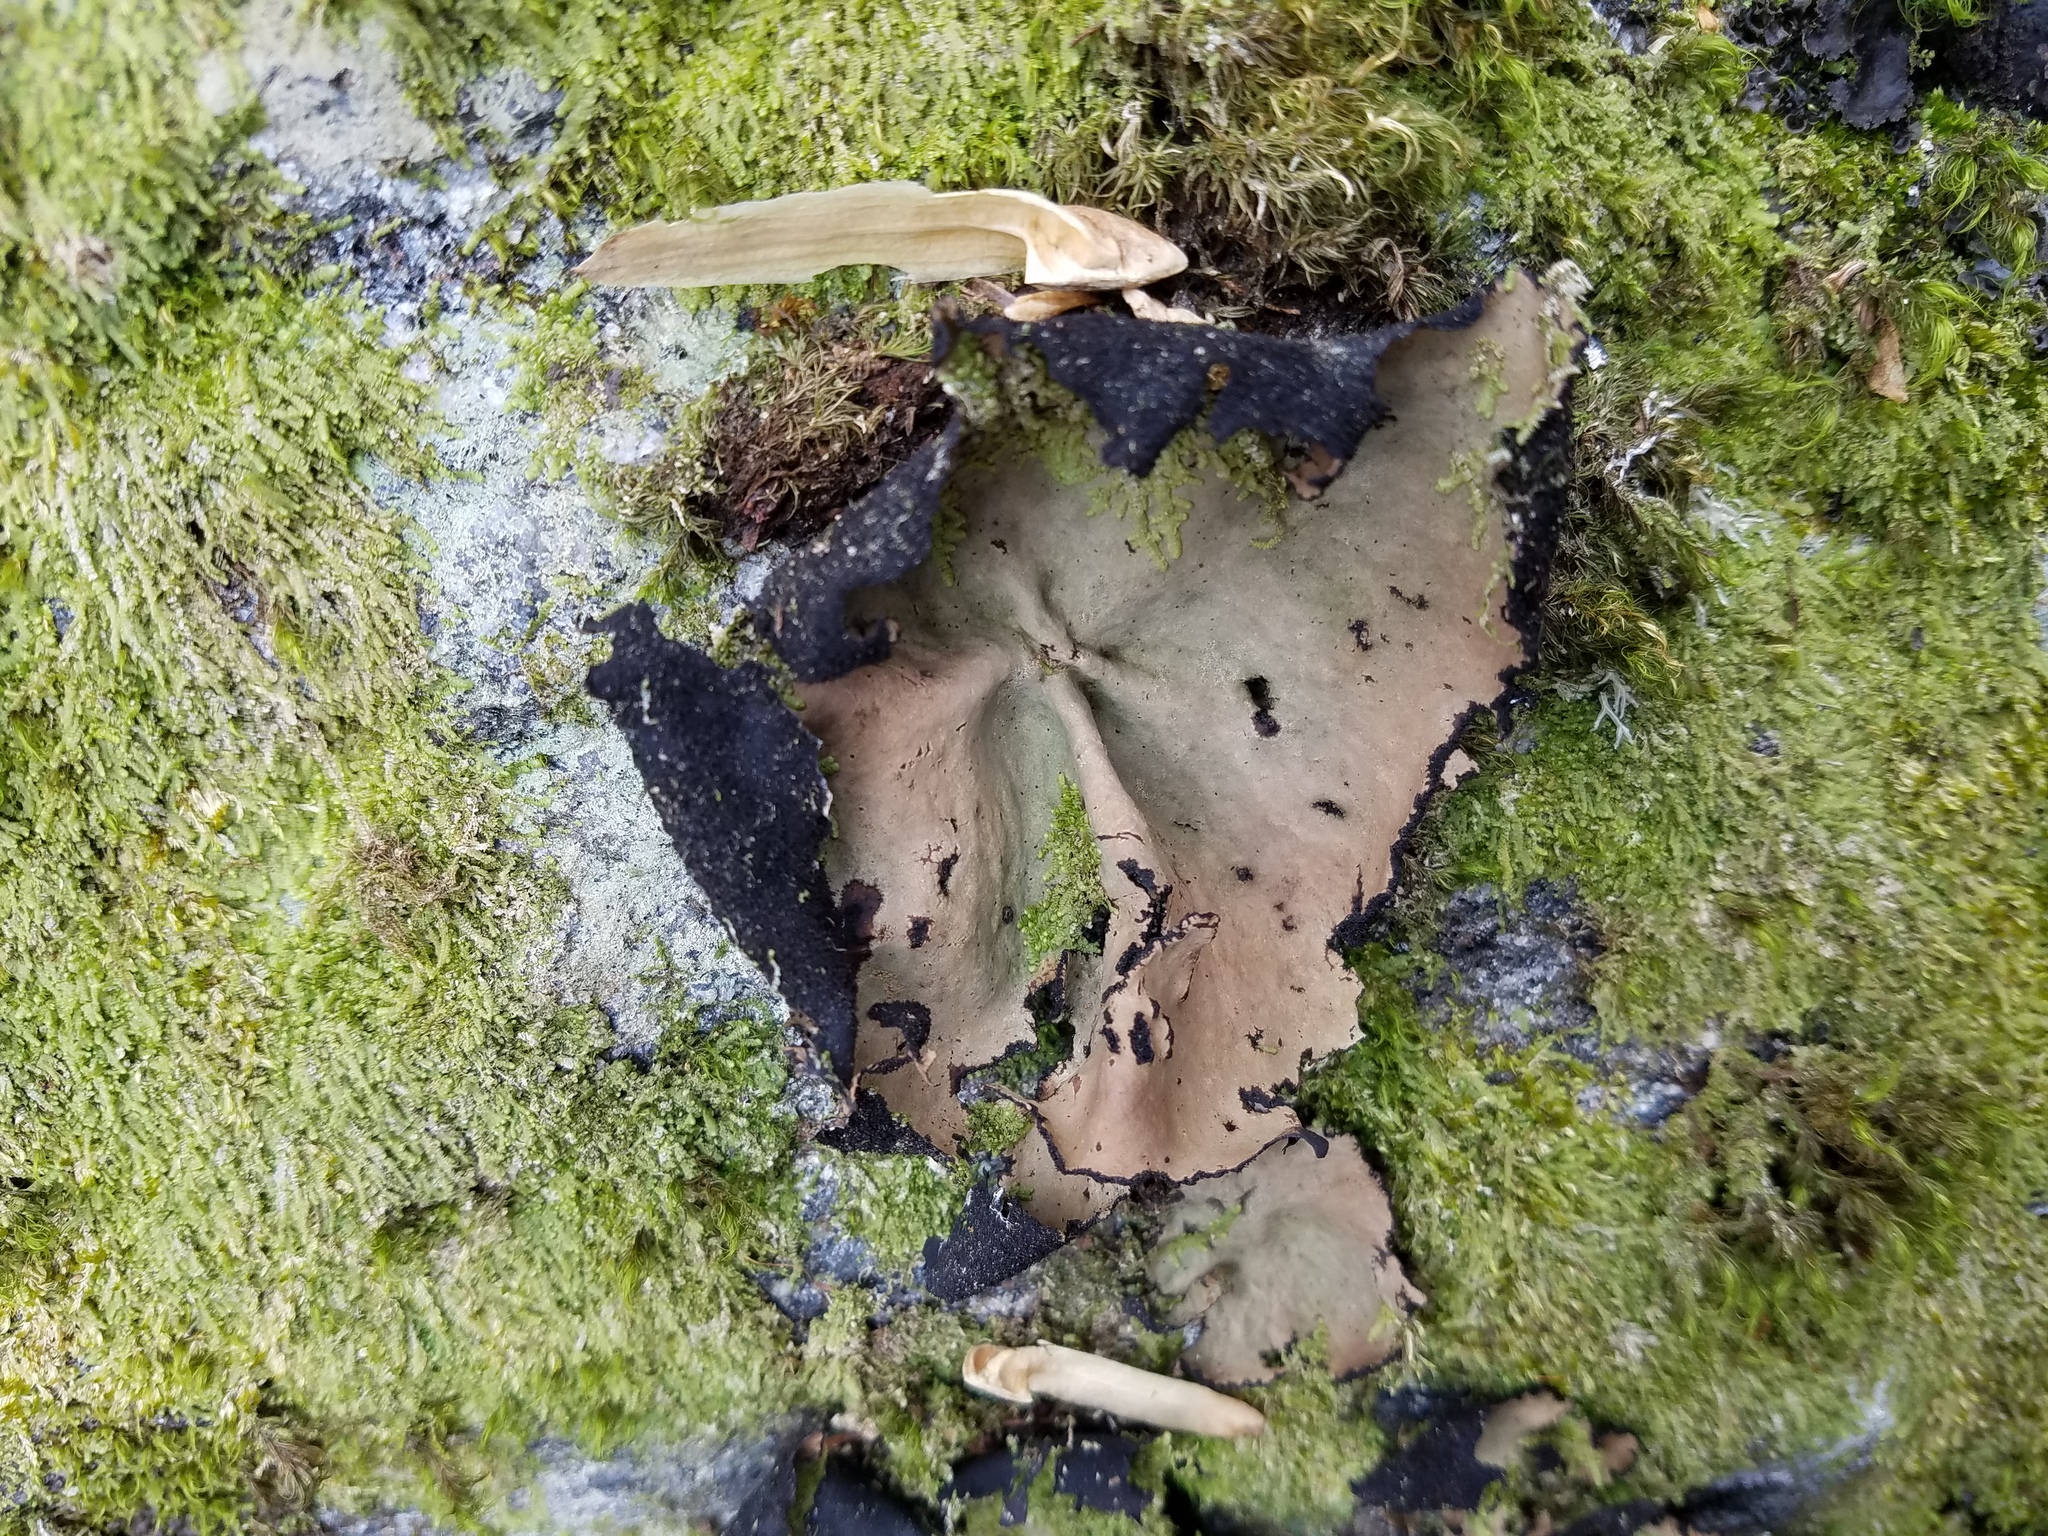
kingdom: Fungi
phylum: Ascomycota
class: Lecanoromycetes
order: Umbilicariales
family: Umbilicariaceae
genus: Umbilicaria
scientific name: Umbilicaria mammulata
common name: Smooth rock tripe
